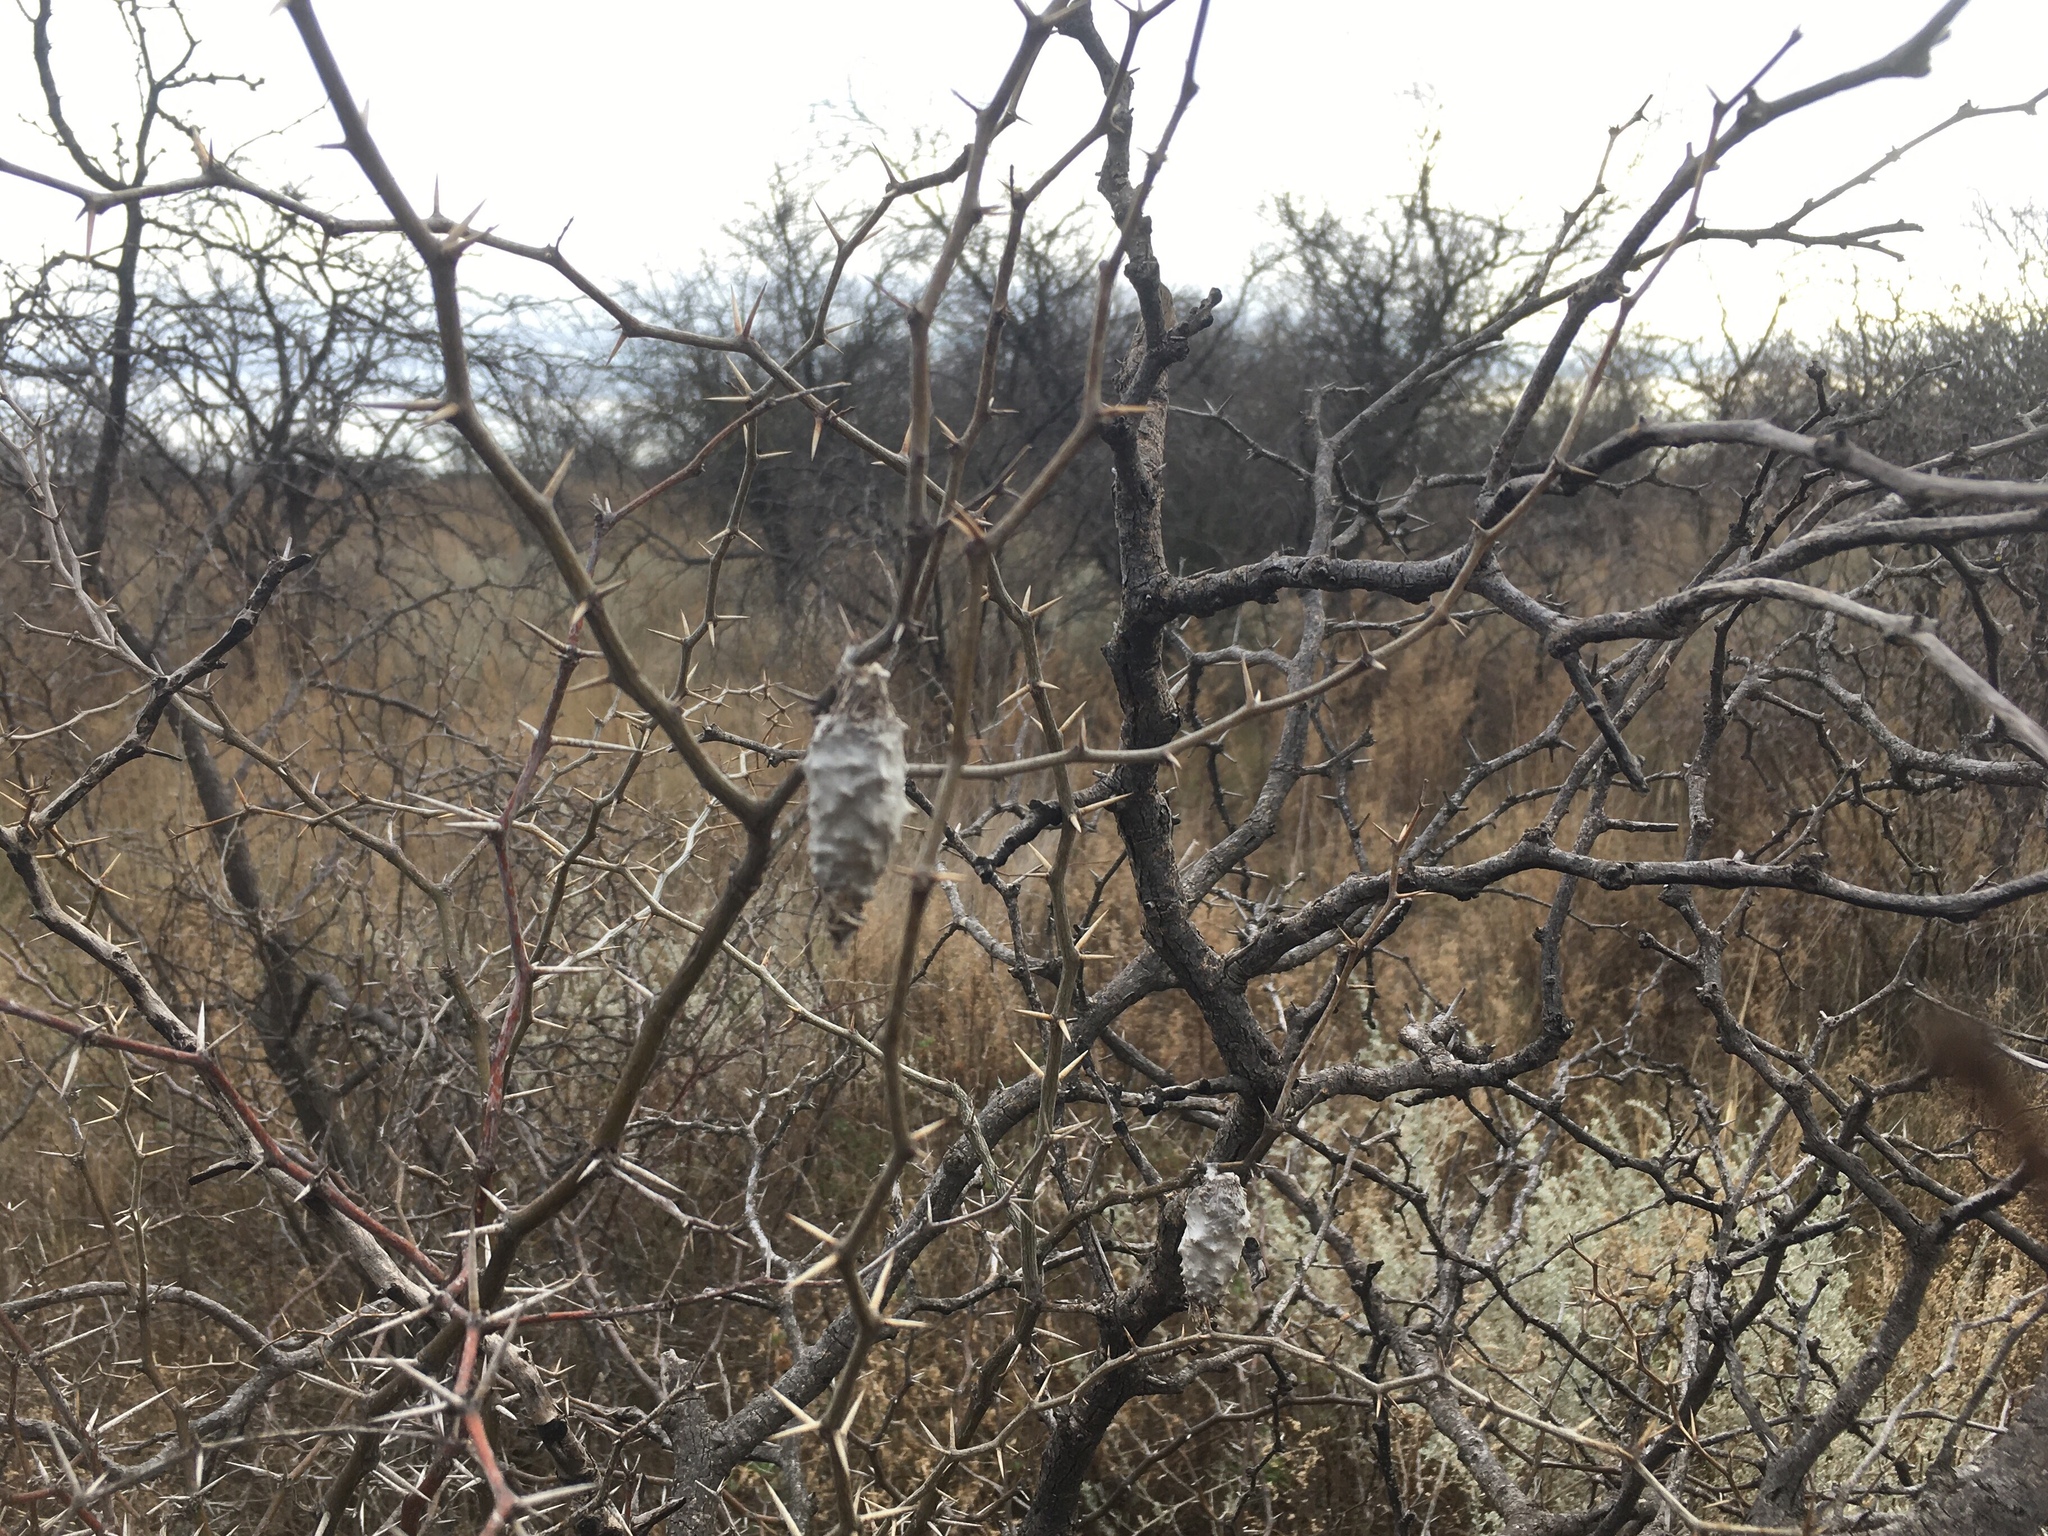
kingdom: Animalia
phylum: Arthropoda
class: Insecta
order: Lepidoptera
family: Psychidae
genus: Oiketicus
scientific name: Oiketicus
